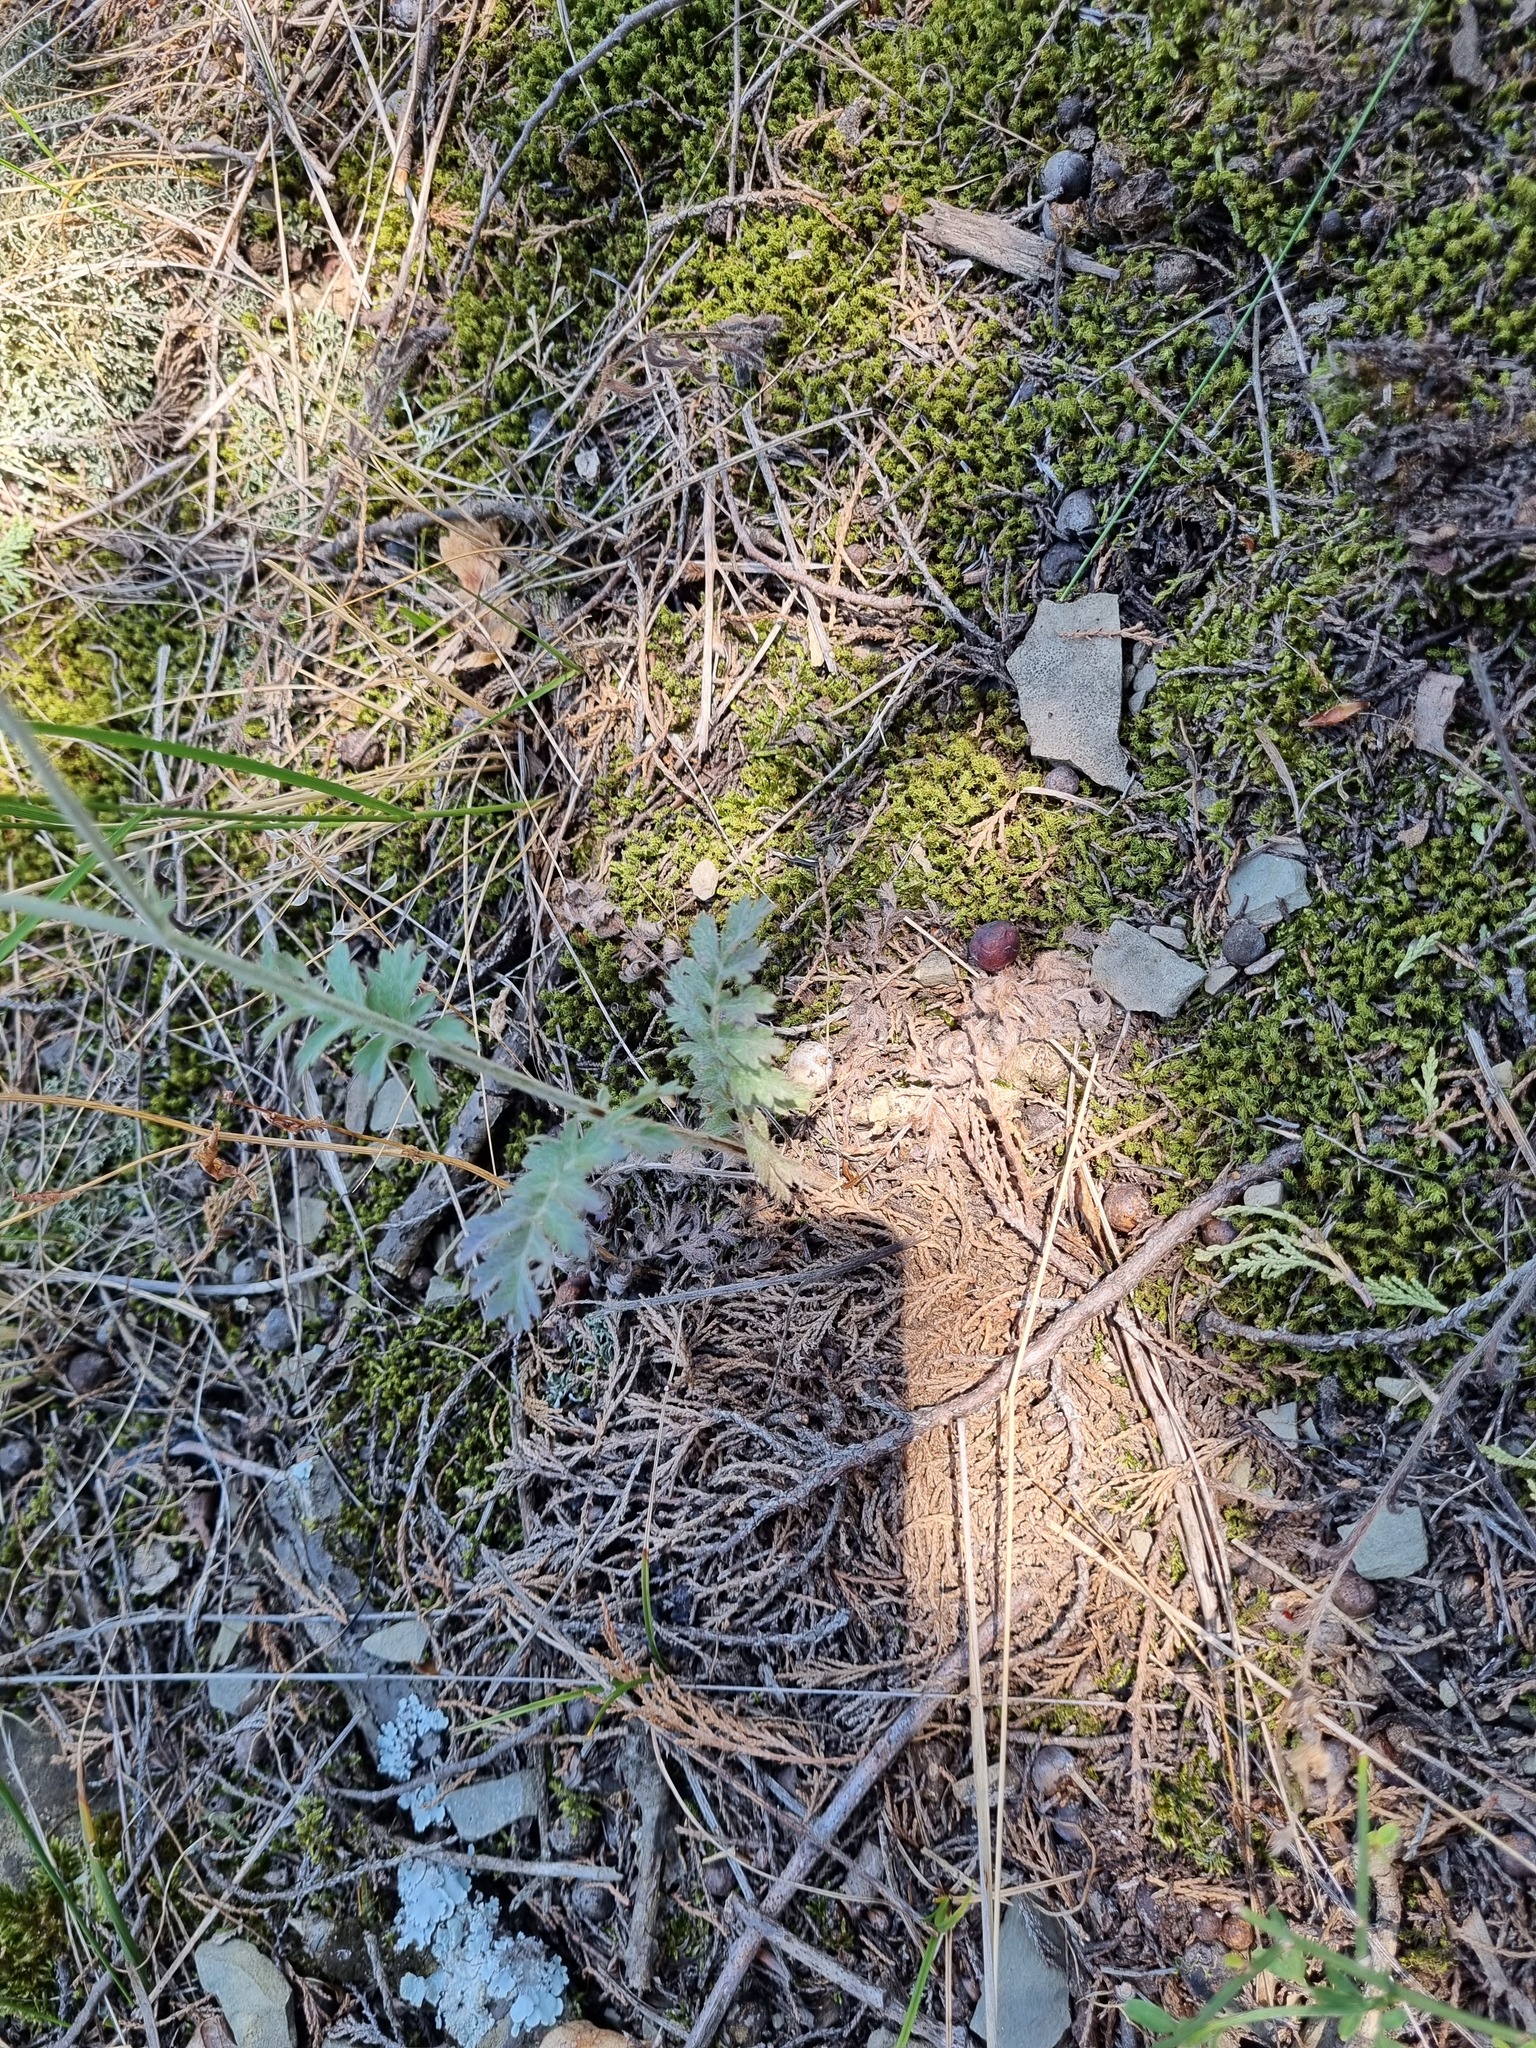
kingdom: Plantae
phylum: Tracheophyta
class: Magnoliopsida
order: Asterales
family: Asteraceae
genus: Tanacetum
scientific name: Tanacetum poteriifolium
